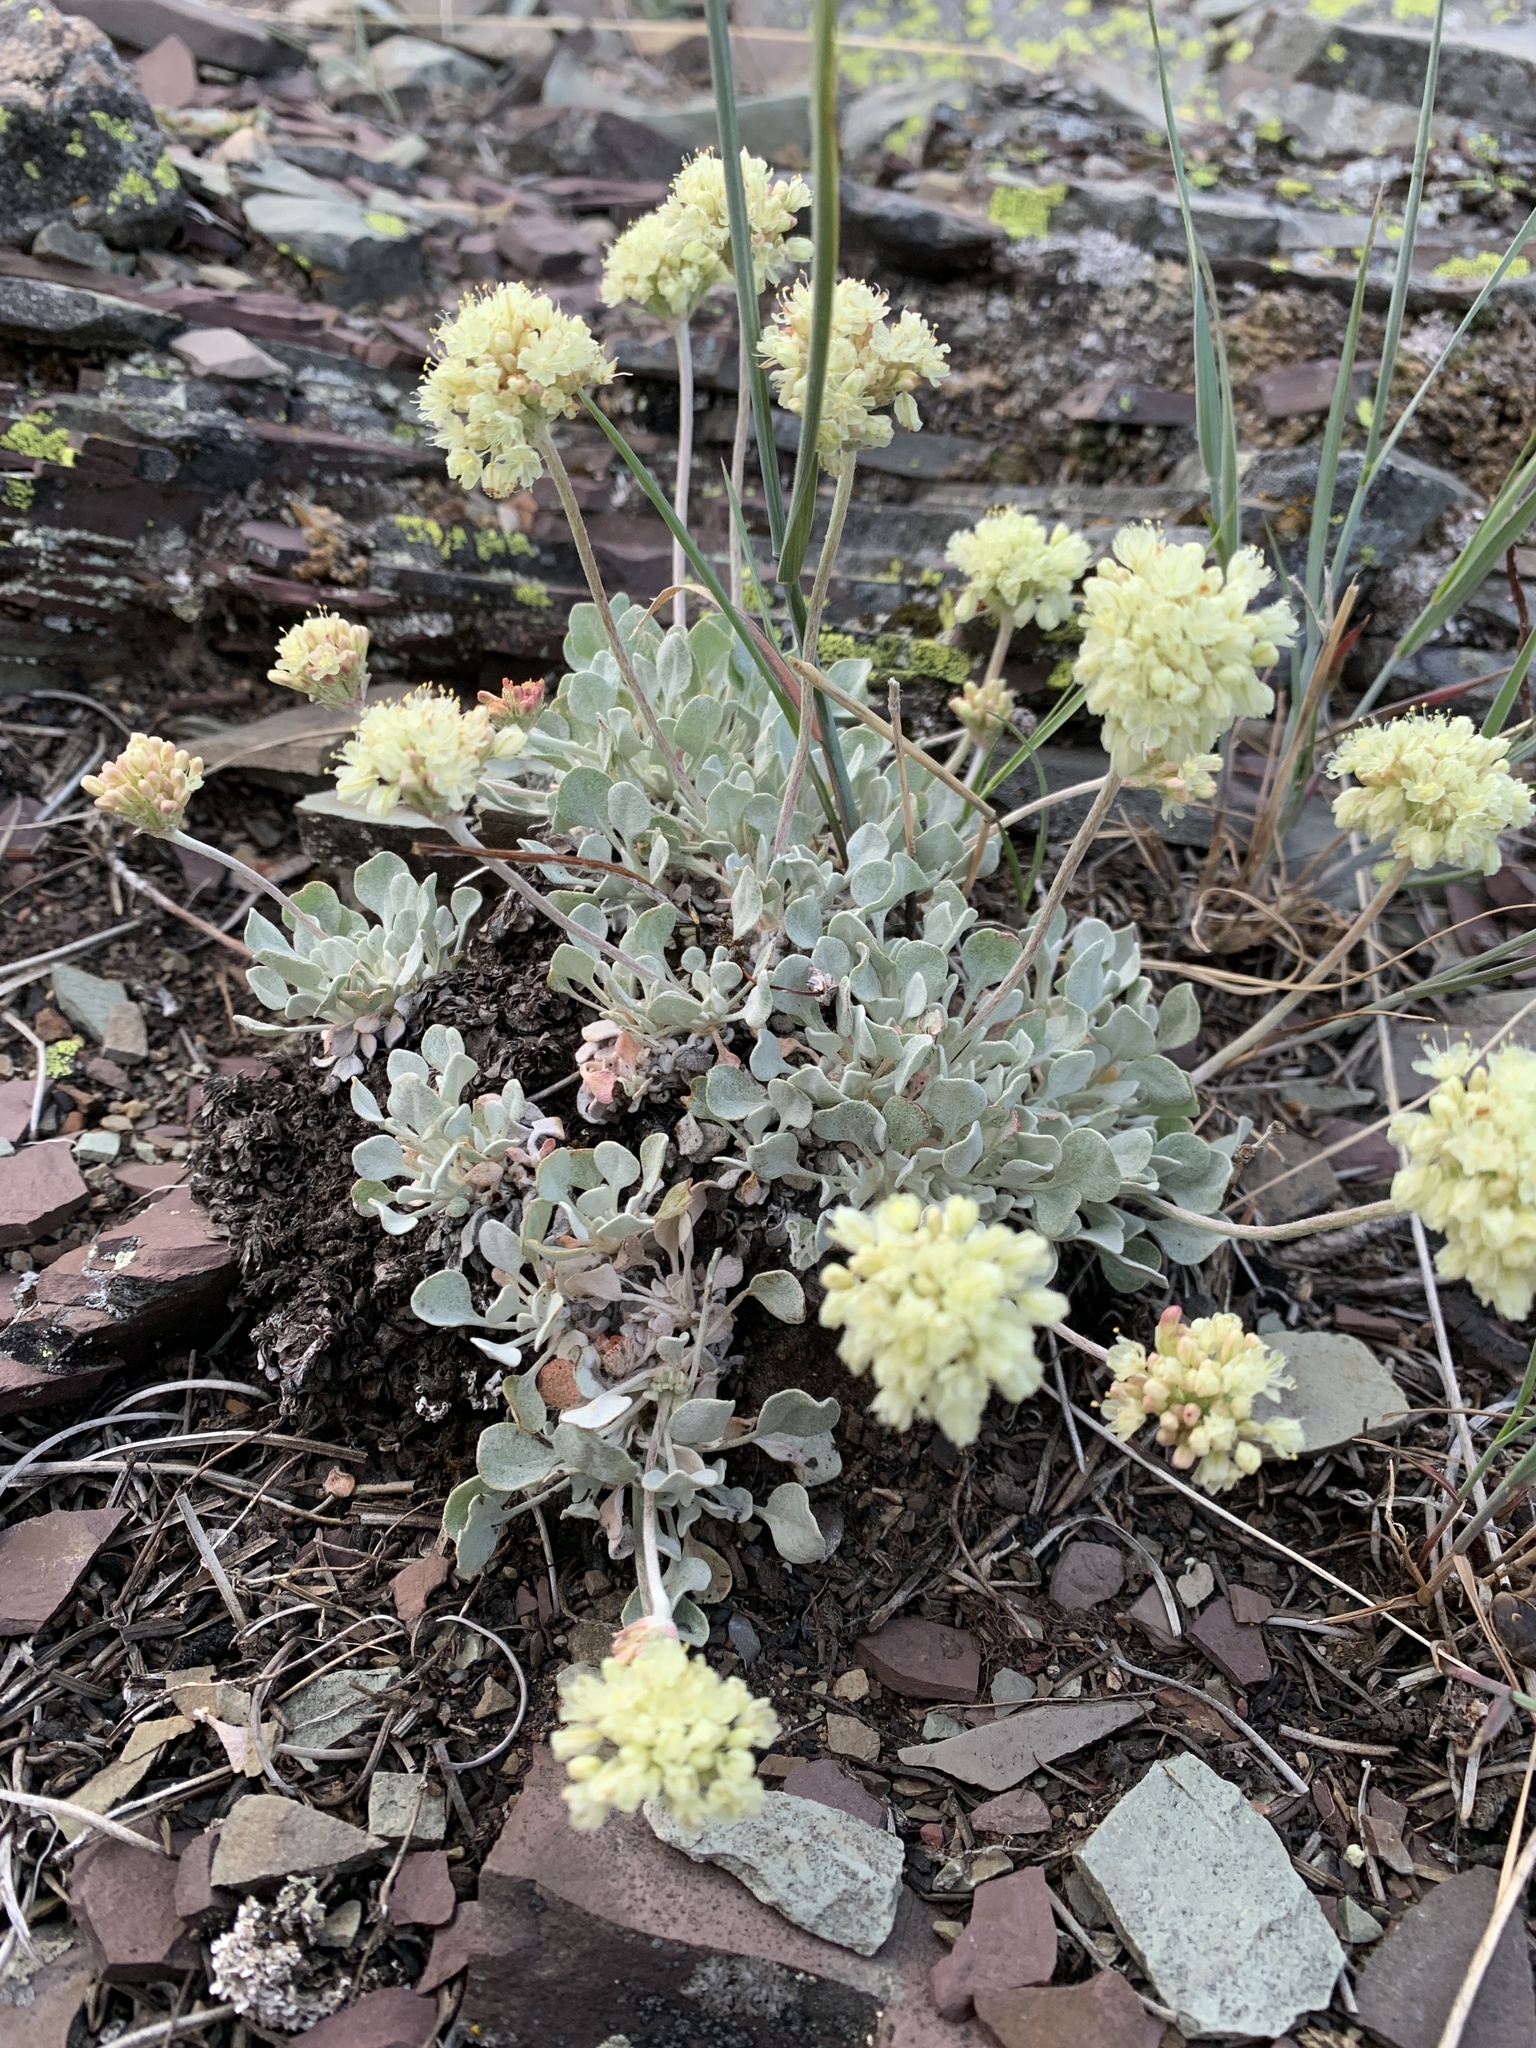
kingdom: Plantae
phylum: Tracheophyta
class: Magnoliopsida
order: Caryophyllales
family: Polygonaceae
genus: Eriogonum
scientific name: Eriogonum ovalifolium
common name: Cushion buckwheat
